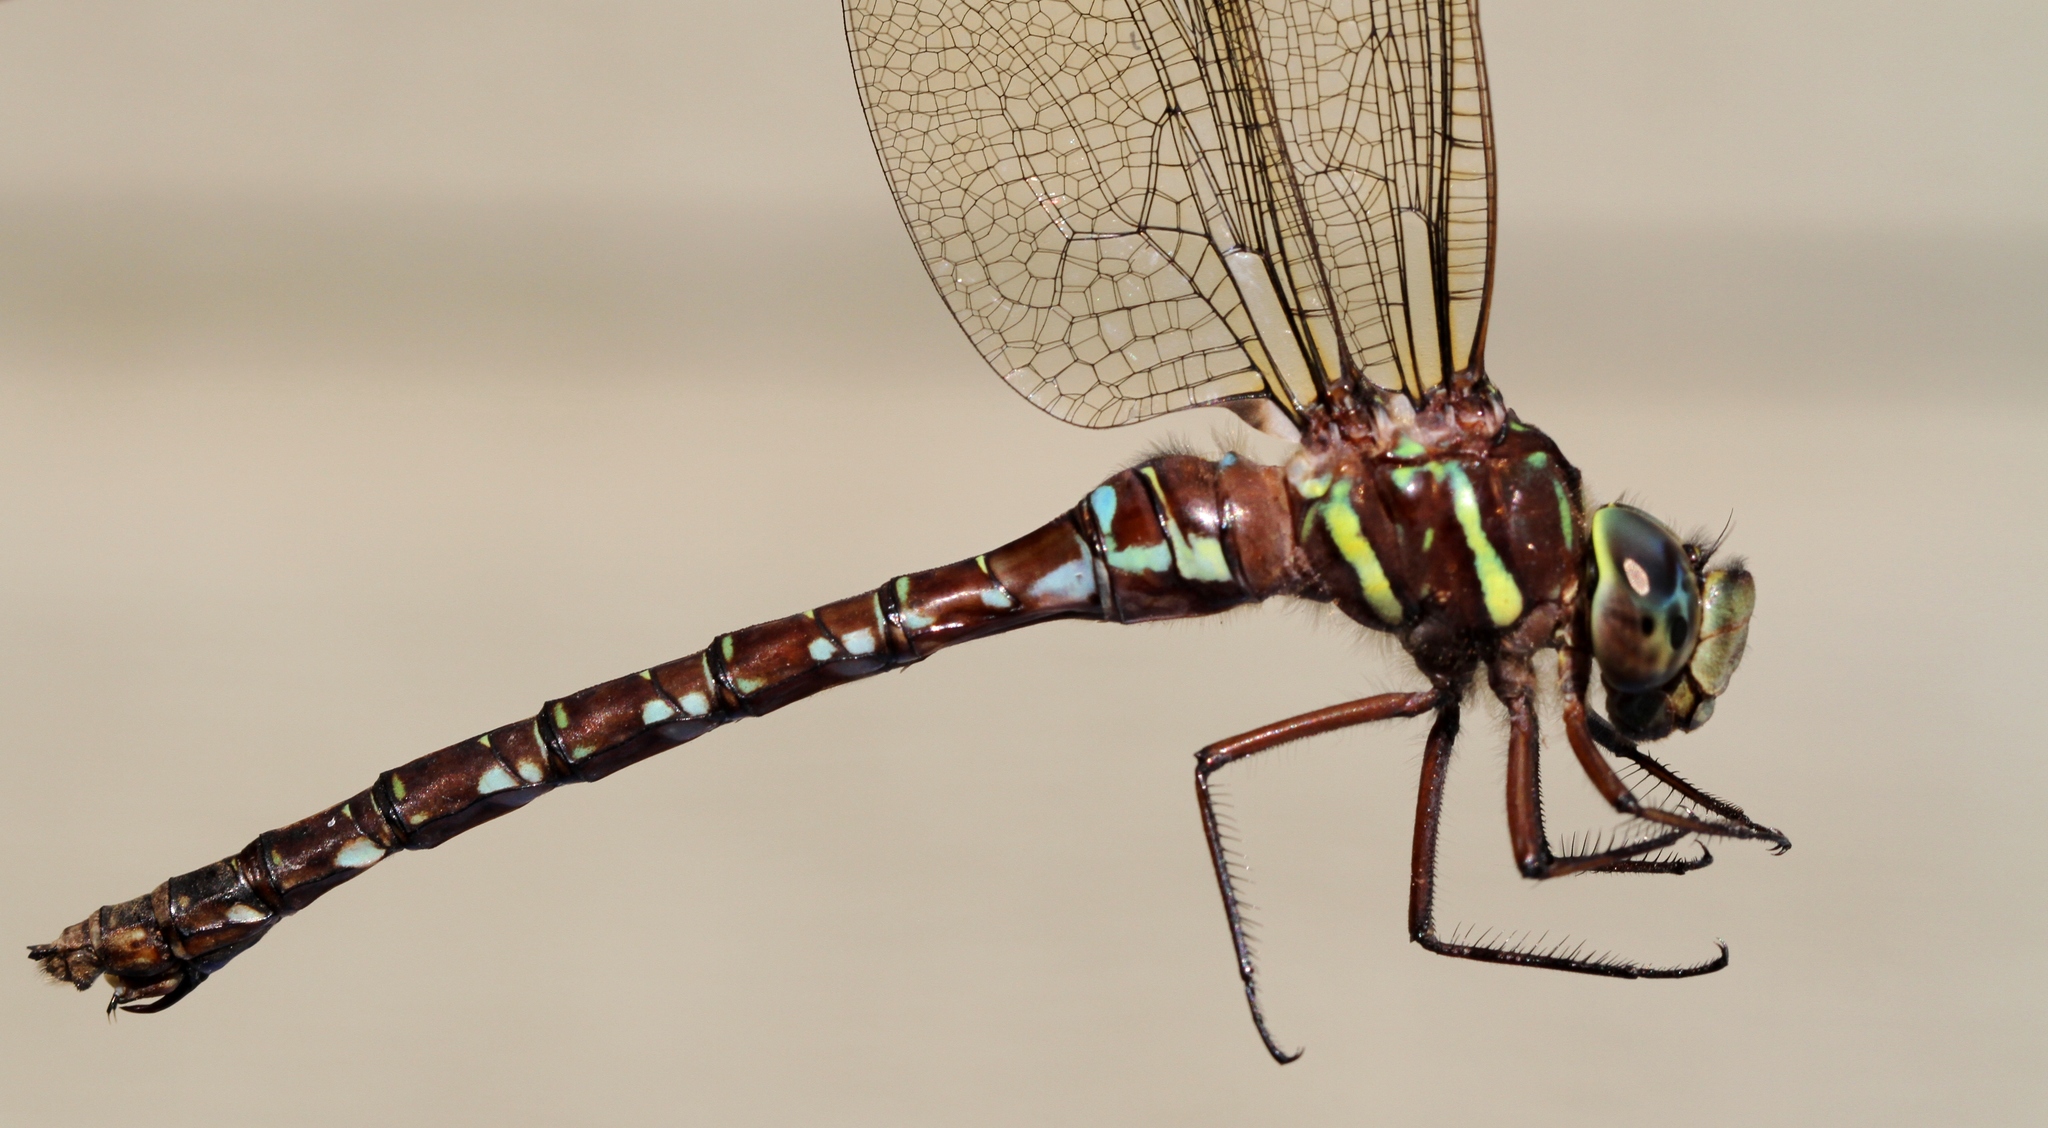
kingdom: Animalia
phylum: Arthropoda
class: Insecta
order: Odonata
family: Aeshnidae
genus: Aeshna
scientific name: Aeshna umbrosa
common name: Shadow darner
